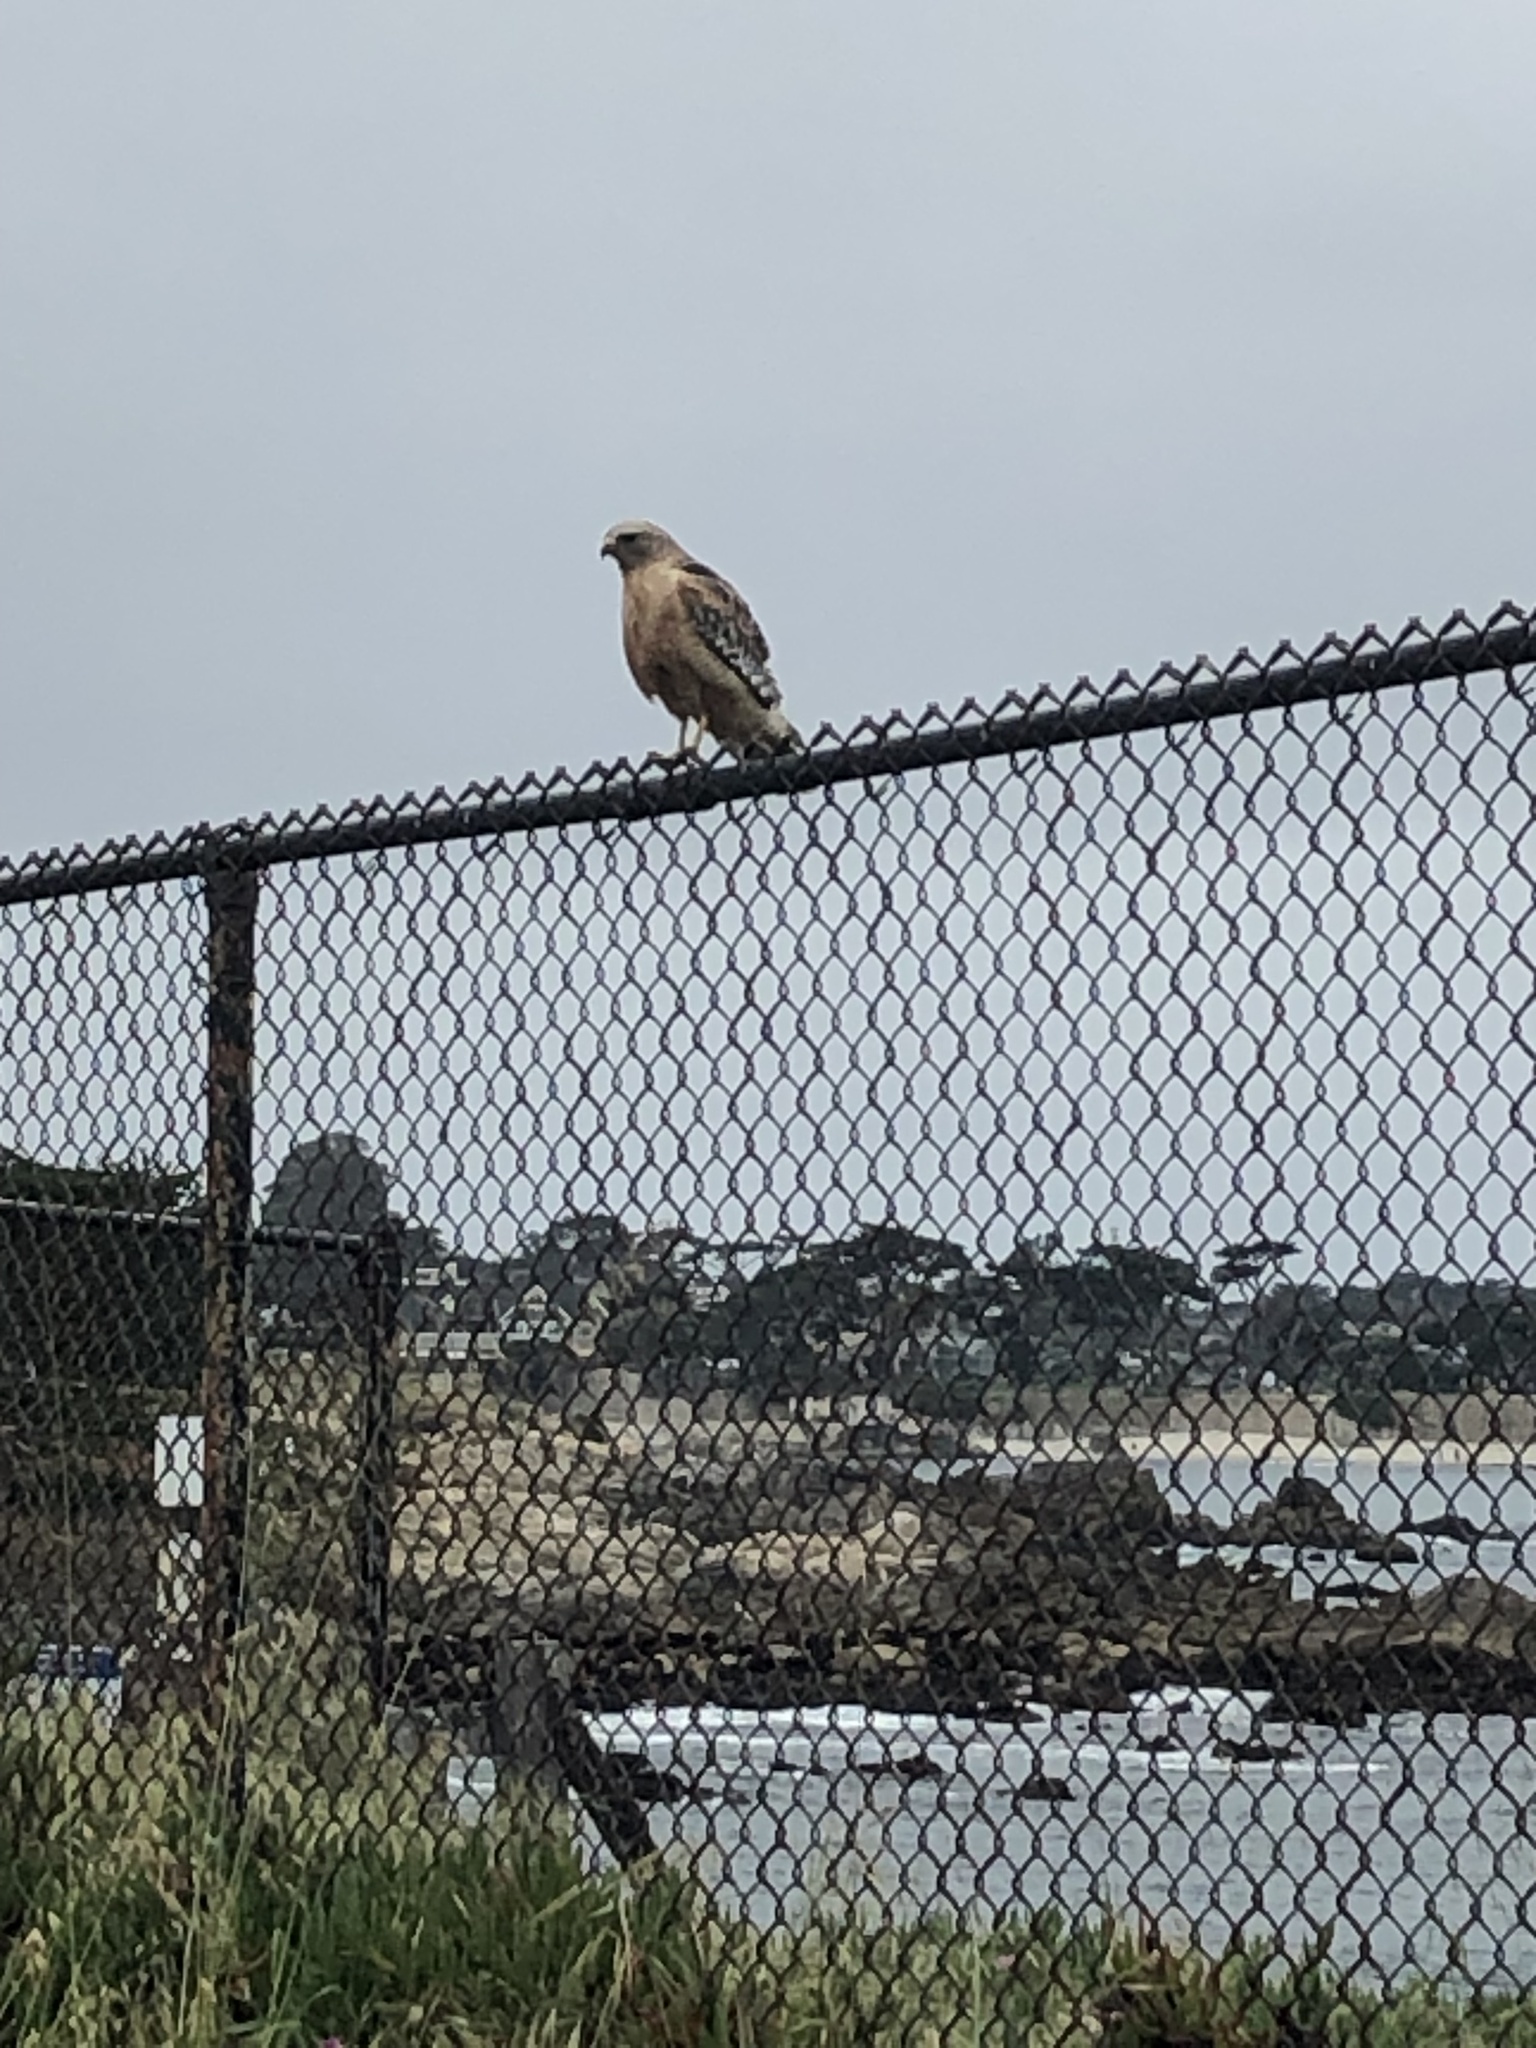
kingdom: Animalia
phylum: Chordata
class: Aves
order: Accipitriformes
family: Accipitridae
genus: Buteo
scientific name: Buteo lineatus
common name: Red-shouldered hawk
